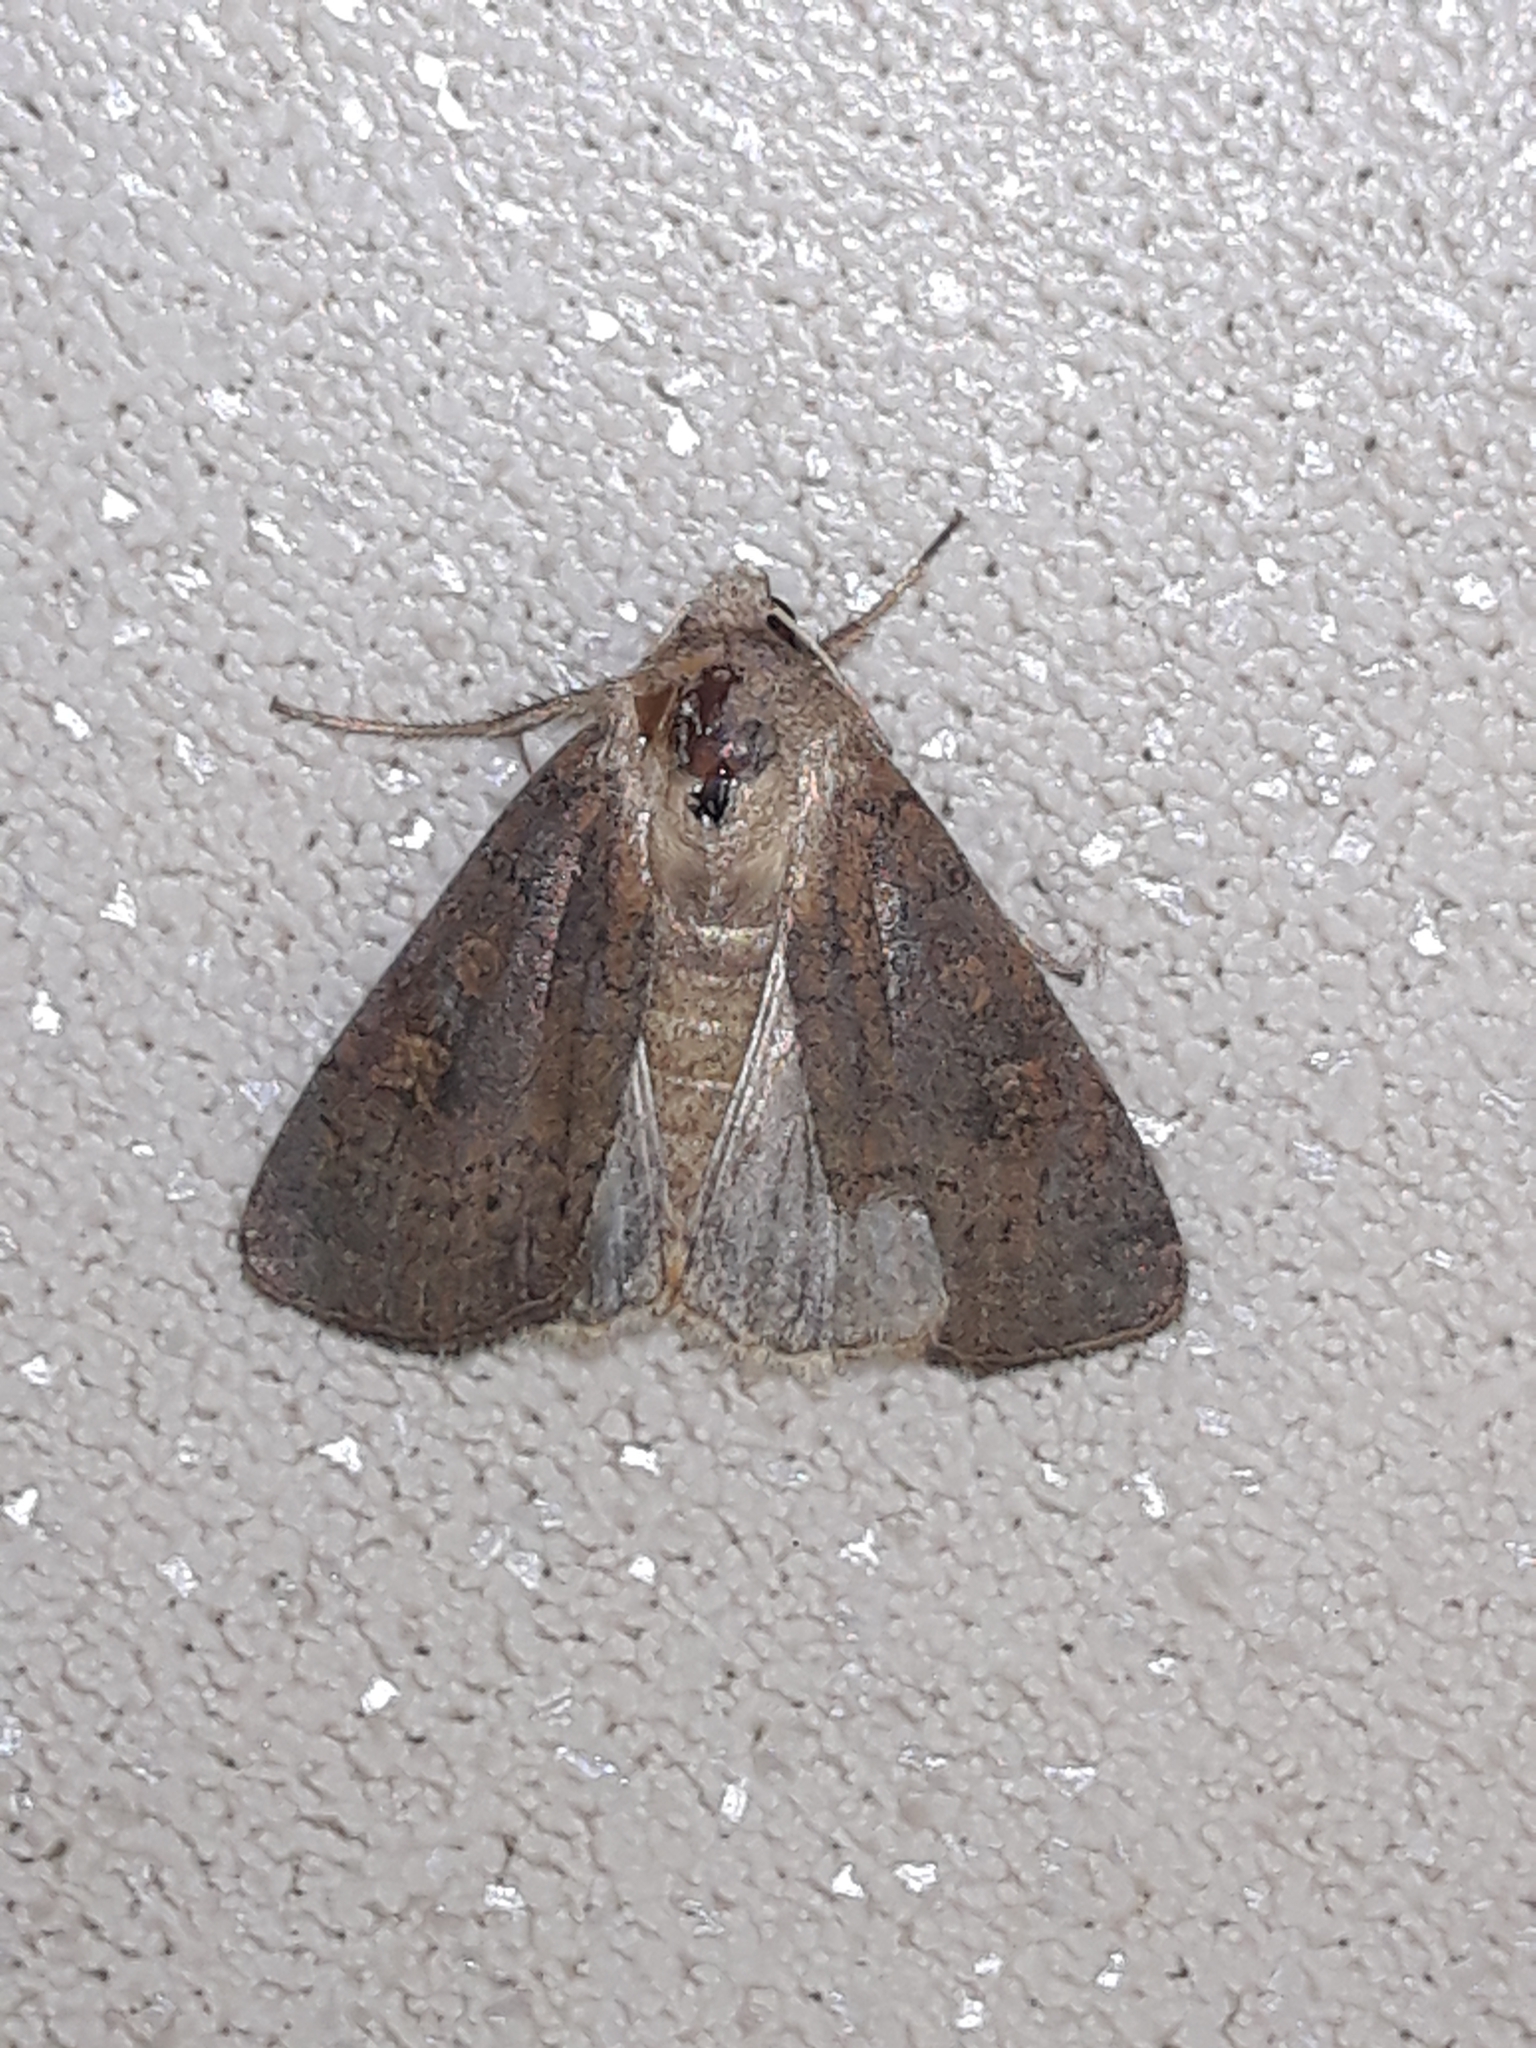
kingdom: Animalia
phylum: Arthropoda
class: Insecta
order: Lepidoptera
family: Noctuidae
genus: Xestia
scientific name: Xestia xanthographa
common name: Square-spot rustic
